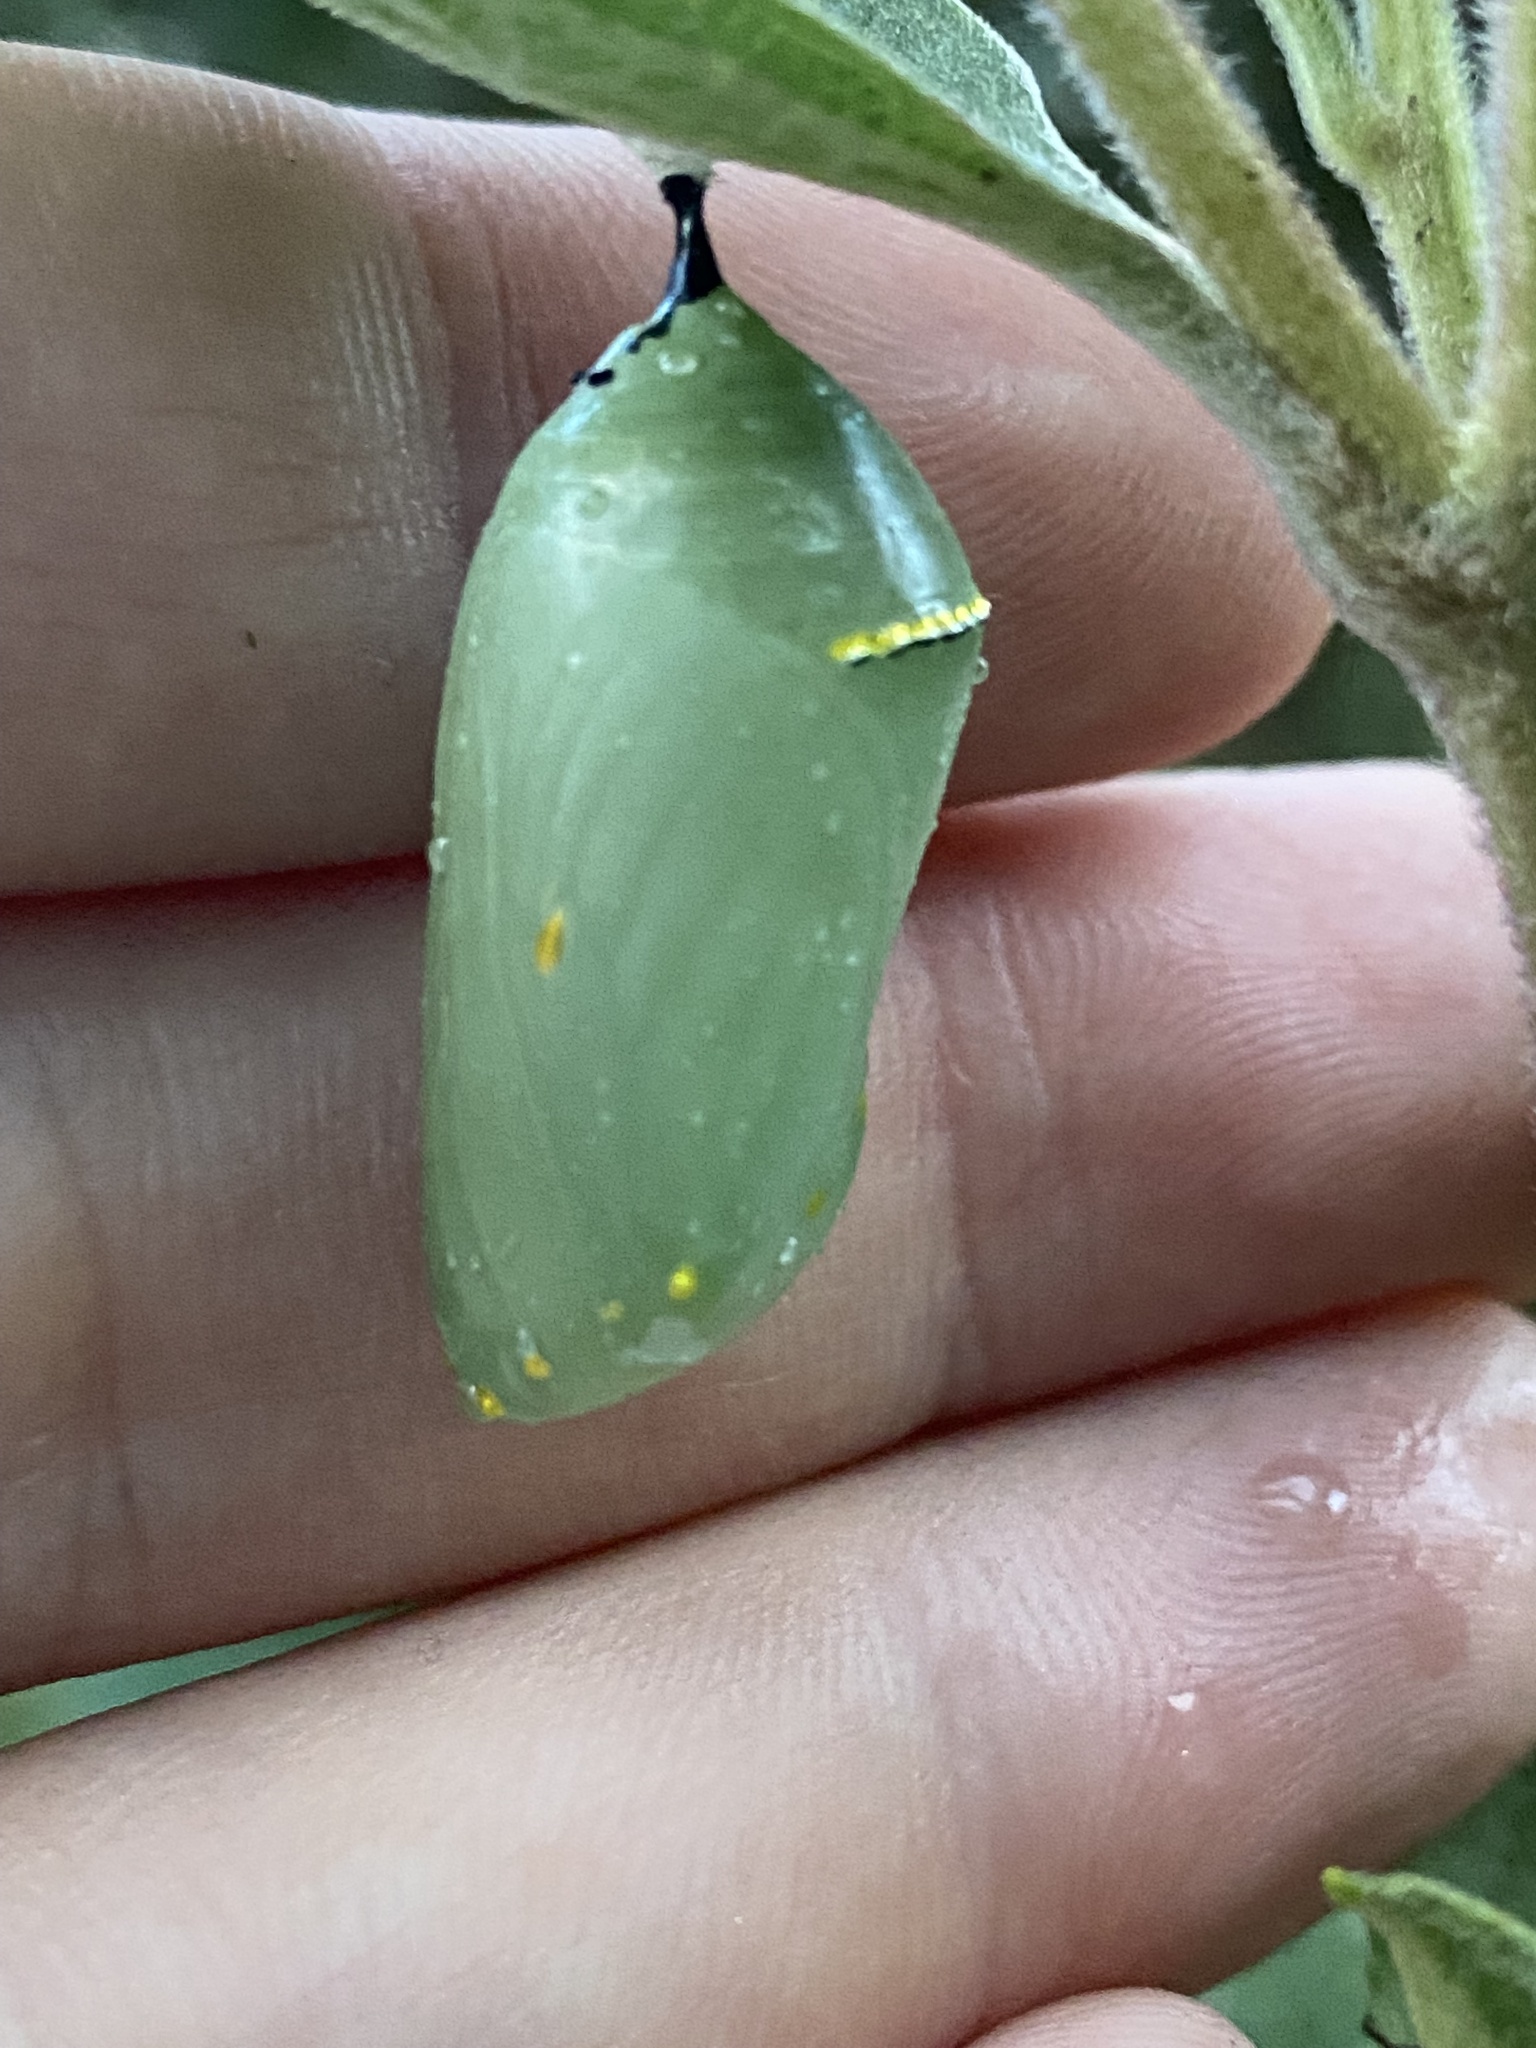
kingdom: Animalia
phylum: Arthropoda
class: Insecta
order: Lepidoptera
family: Nymphalidae
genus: Danaus
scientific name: Danaus plexippus
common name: Monarch
